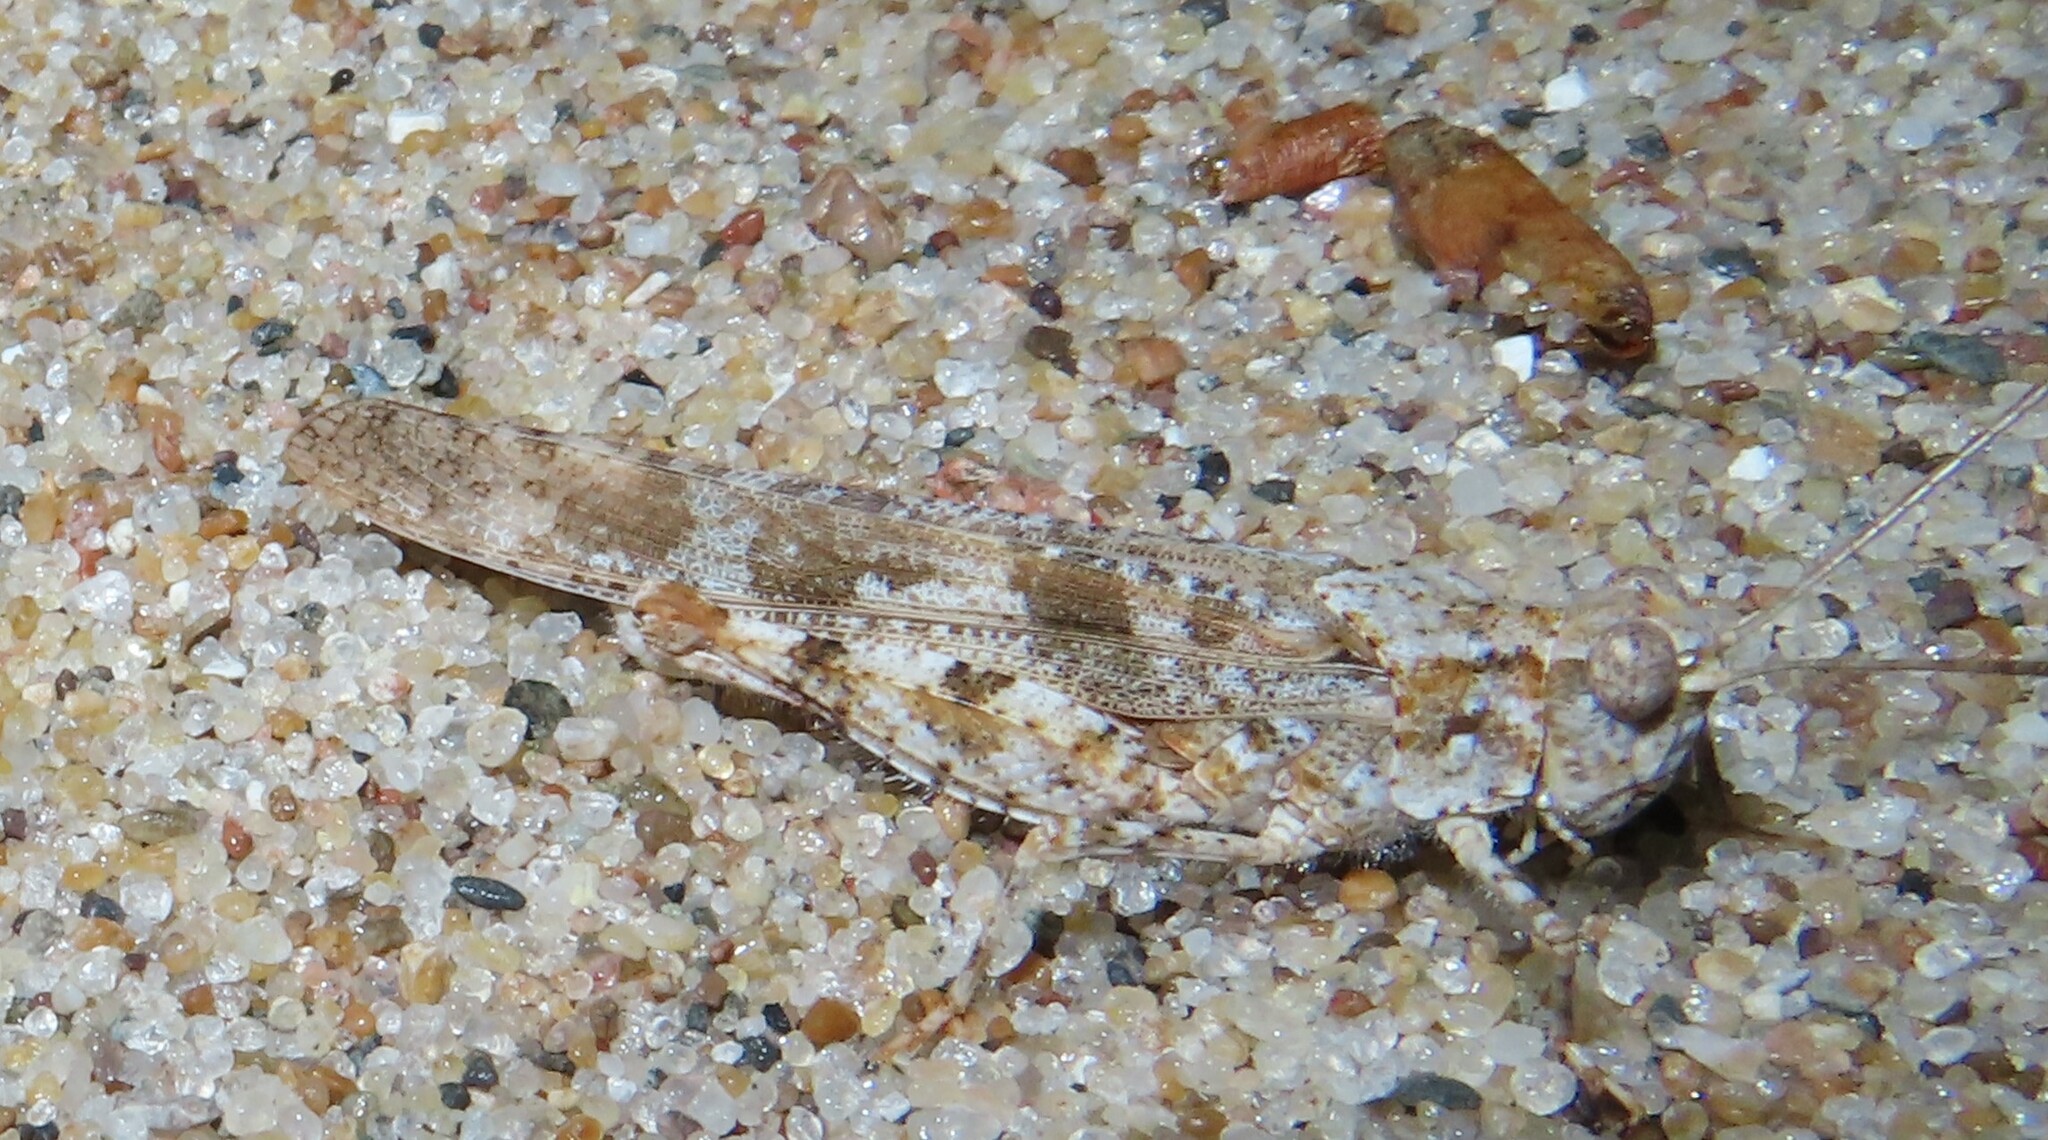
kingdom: Animalia
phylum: Arthropoda
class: Insecta
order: Orthoptera
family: Acrididae
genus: Trimerotropis
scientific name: Trimerotropis maritima
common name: Seaside locust
